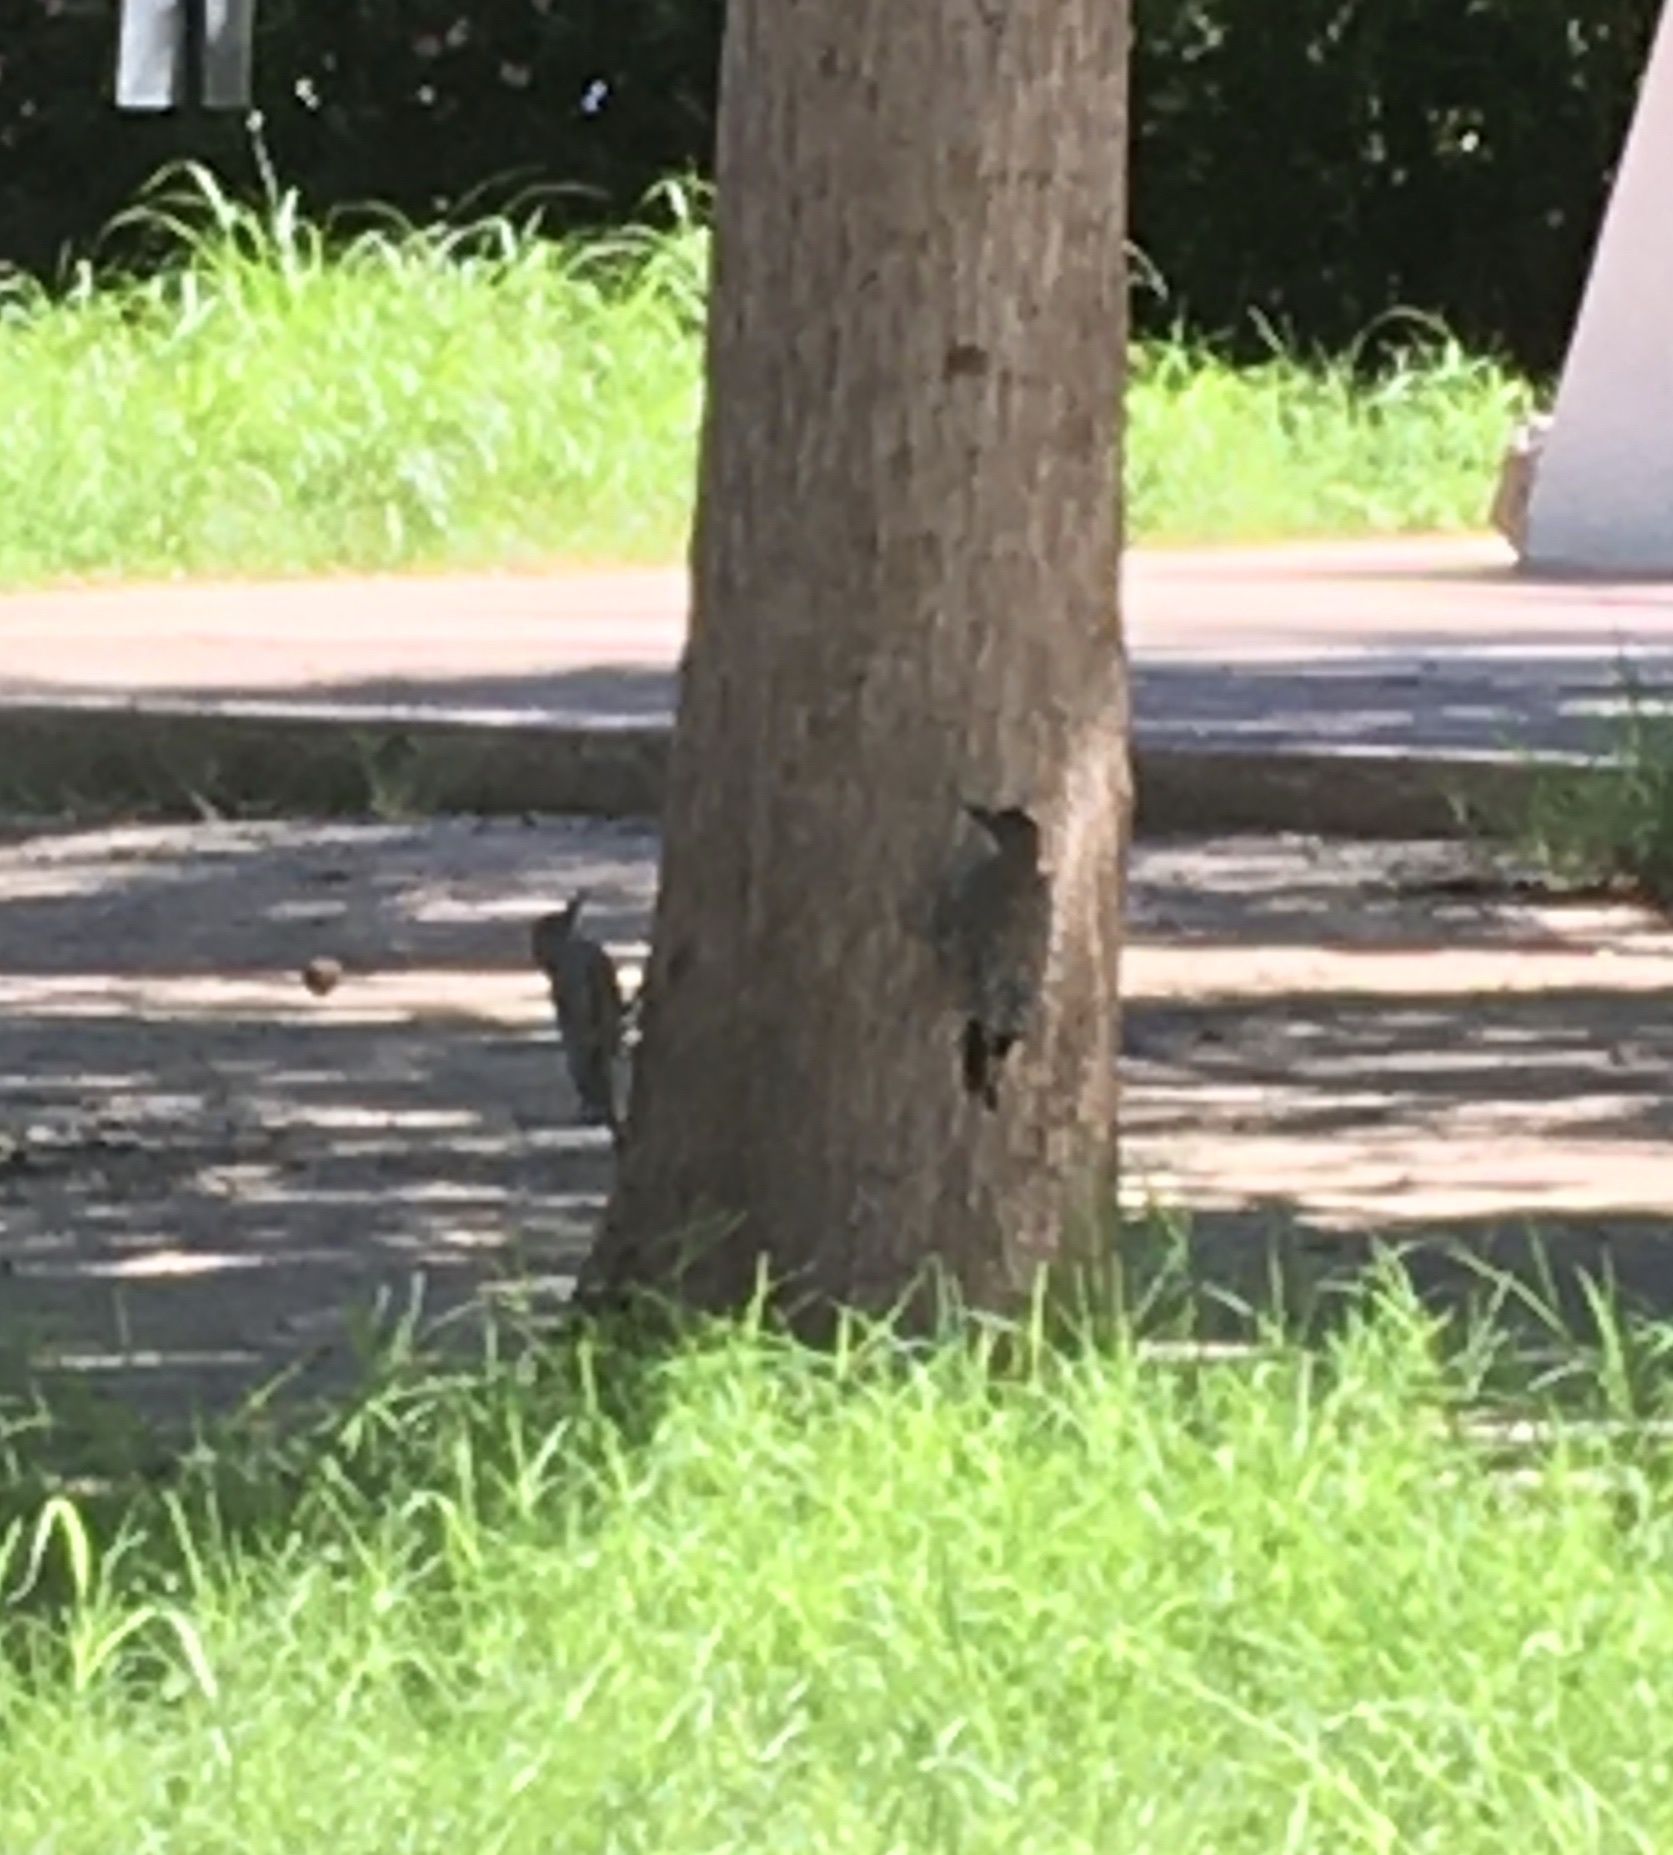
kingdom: Animalia
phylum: Chordata
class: Aves
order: Piciformes
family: Picidae
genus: Melanerpes
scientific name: Melanerpes uropygialis
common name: Gila woodpecker
